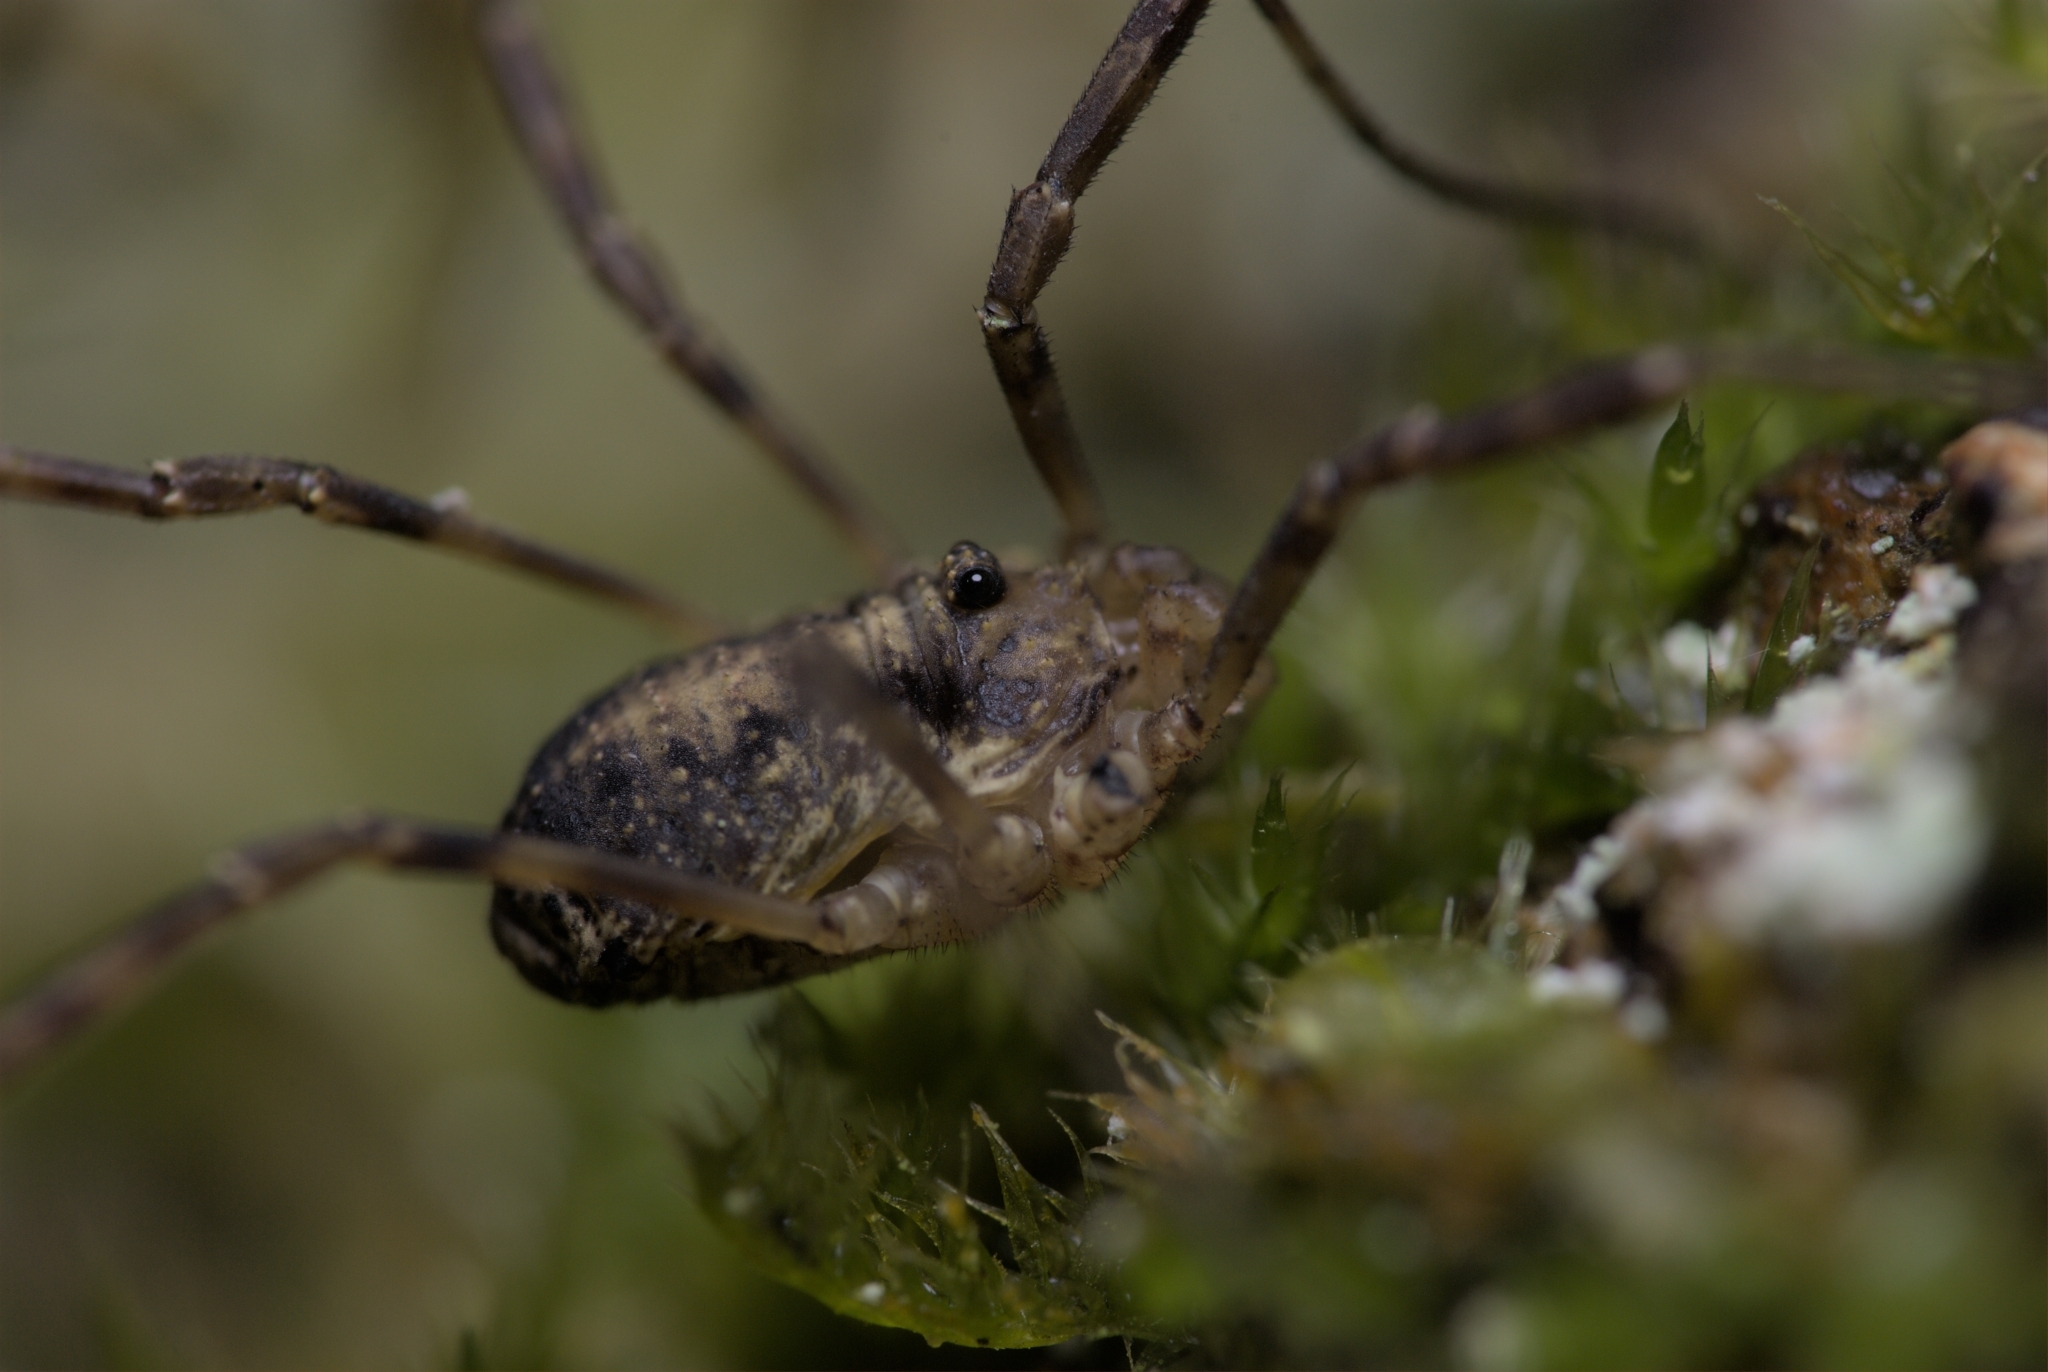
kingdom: Animalia
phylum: Arthropoda
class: Arachnida
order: Opiliones
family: Phalangiidae
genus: Oligolophus
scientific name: Oligolophus hansenii
